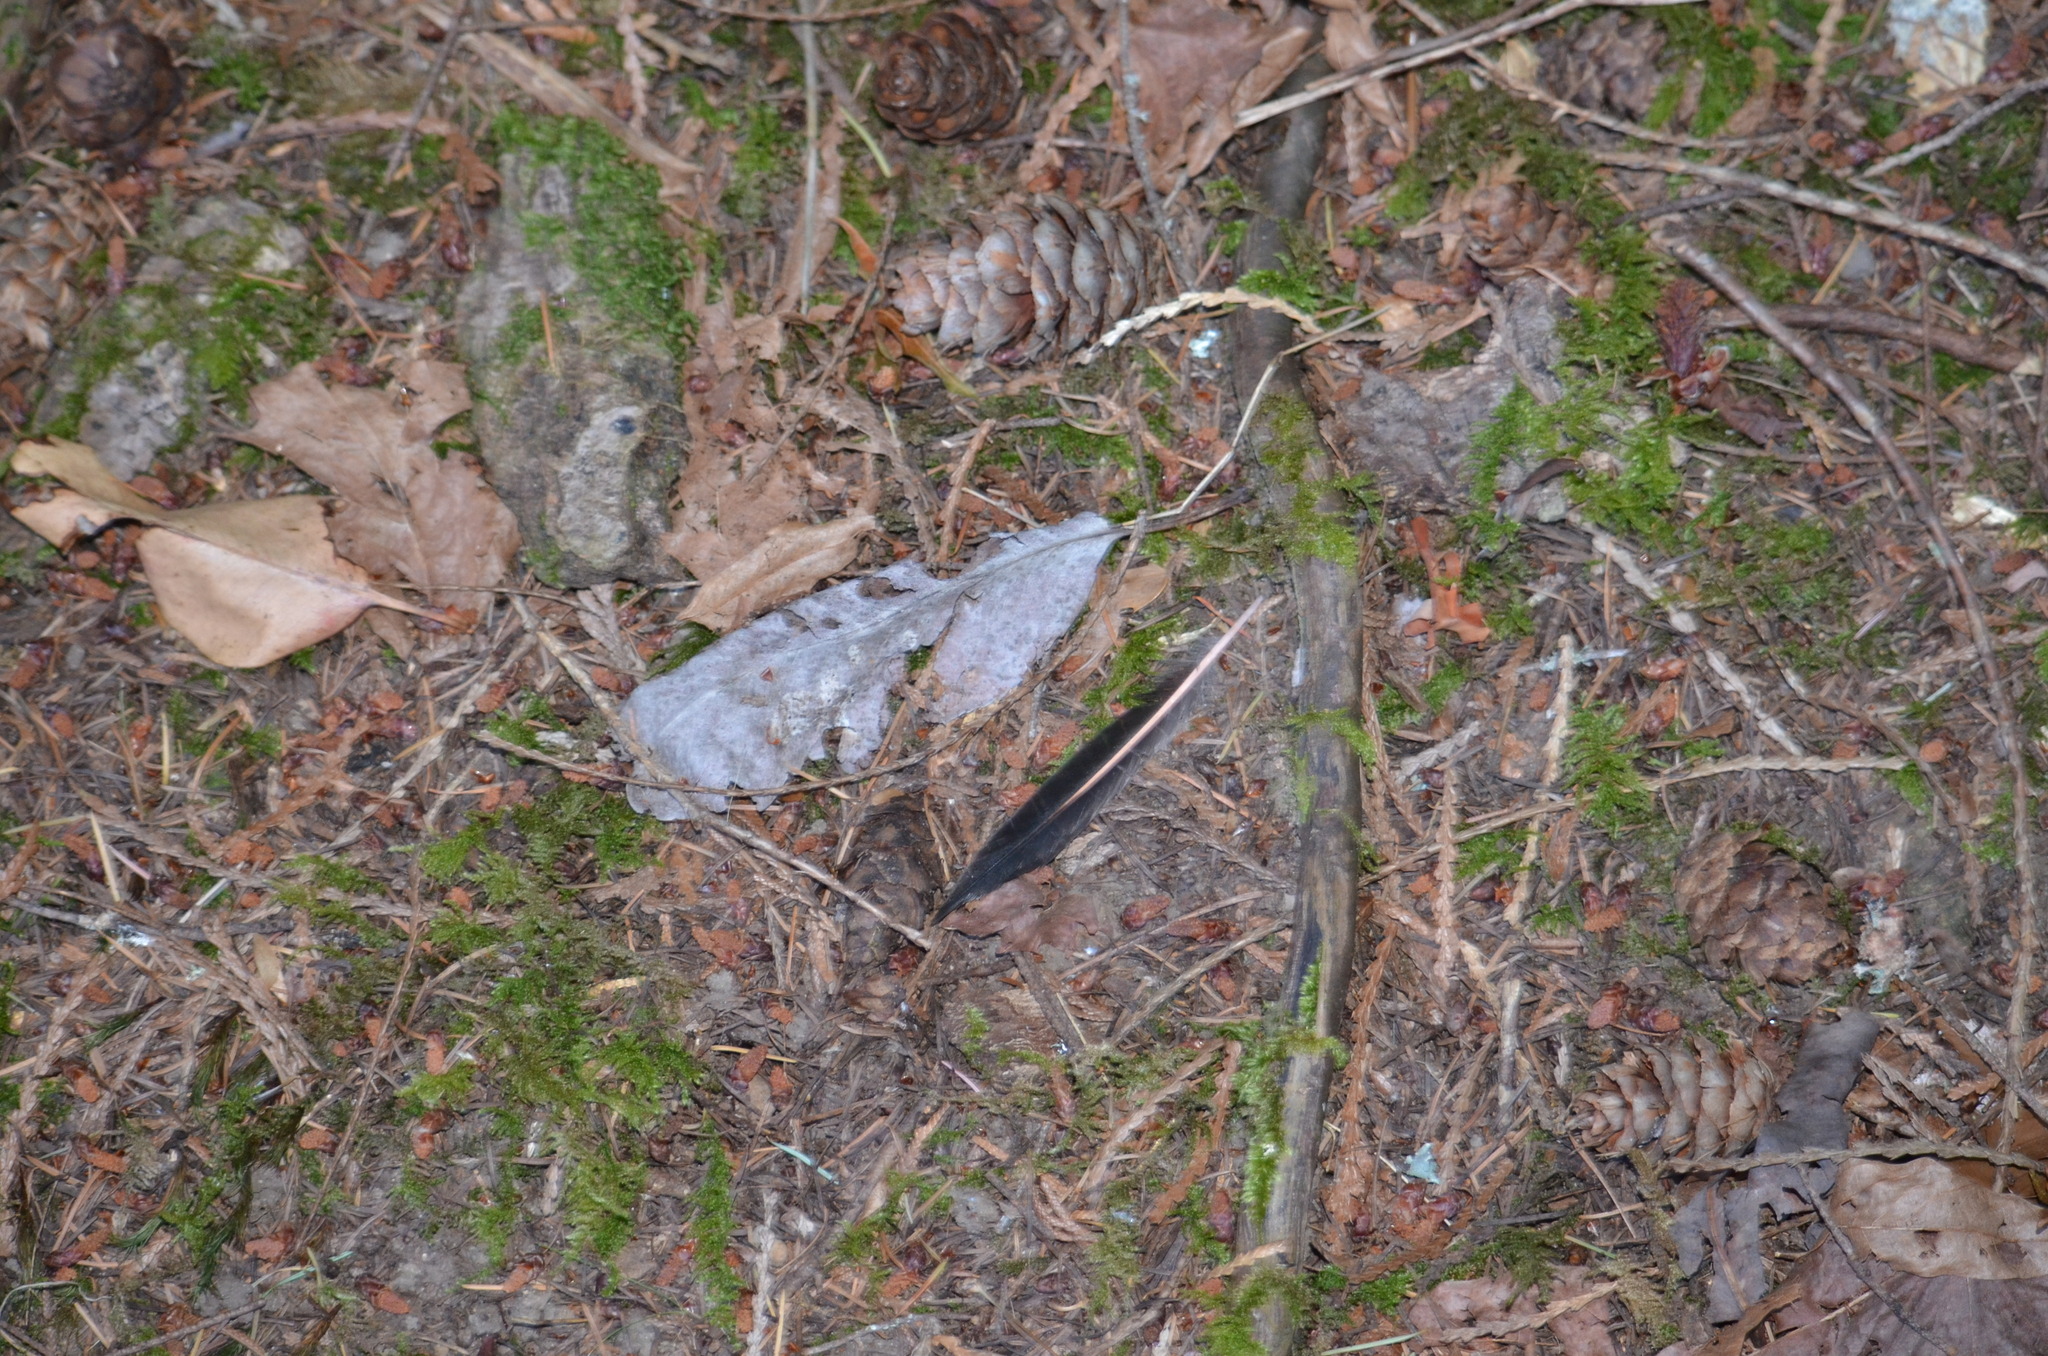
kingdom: Animalia
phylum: Chordata
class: Aves
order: Piciformes
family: Picidae
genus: Colaptes
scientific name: Colaptes auratus
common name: Northern flicker
